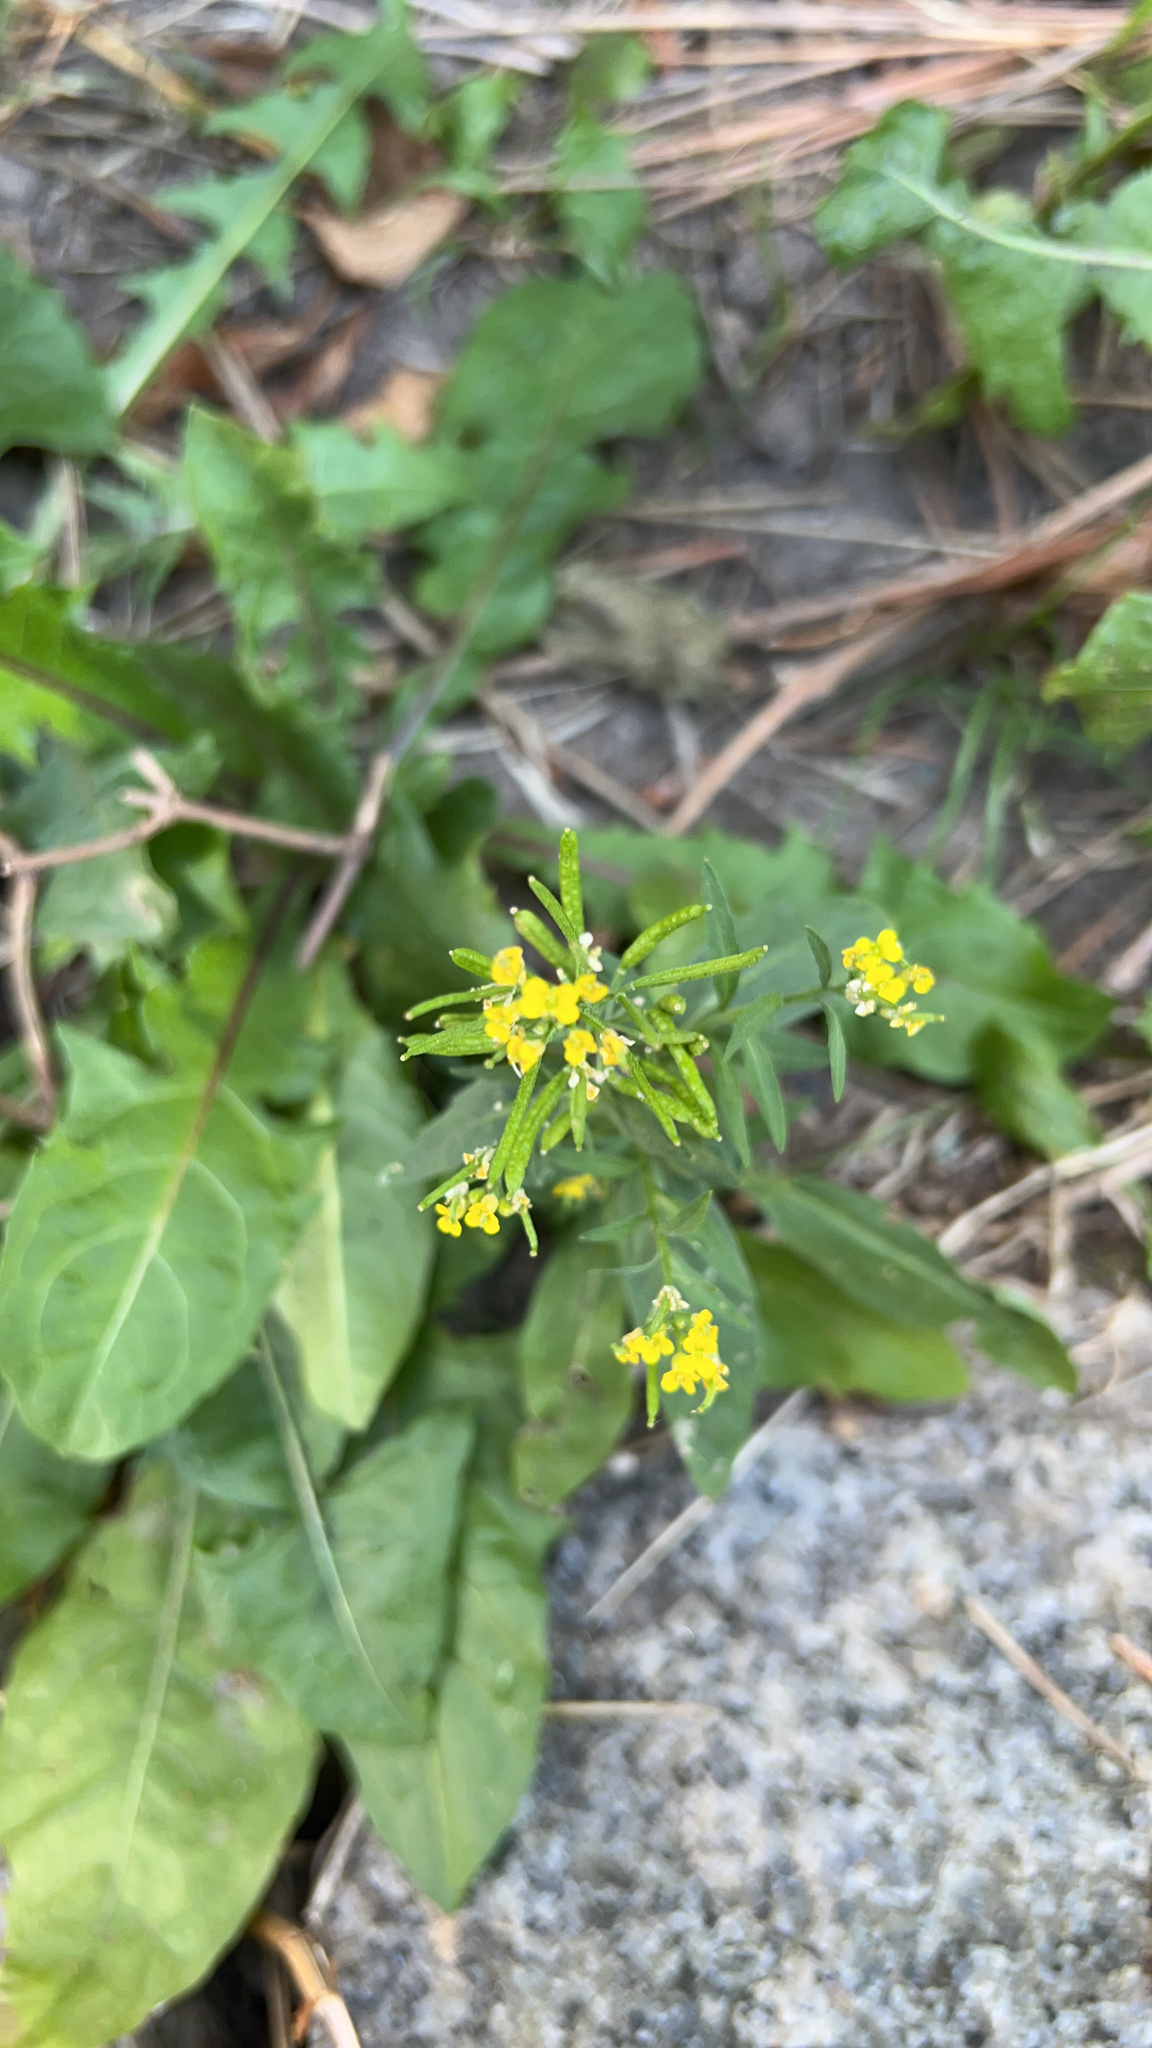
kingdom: Plantae
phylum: Tracheophyta
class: Magnoliopsida
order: Brassicales
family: Brassicaceae
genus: Erysimum
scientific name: Erysimum cheiranthoides
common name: Treacle mustard
